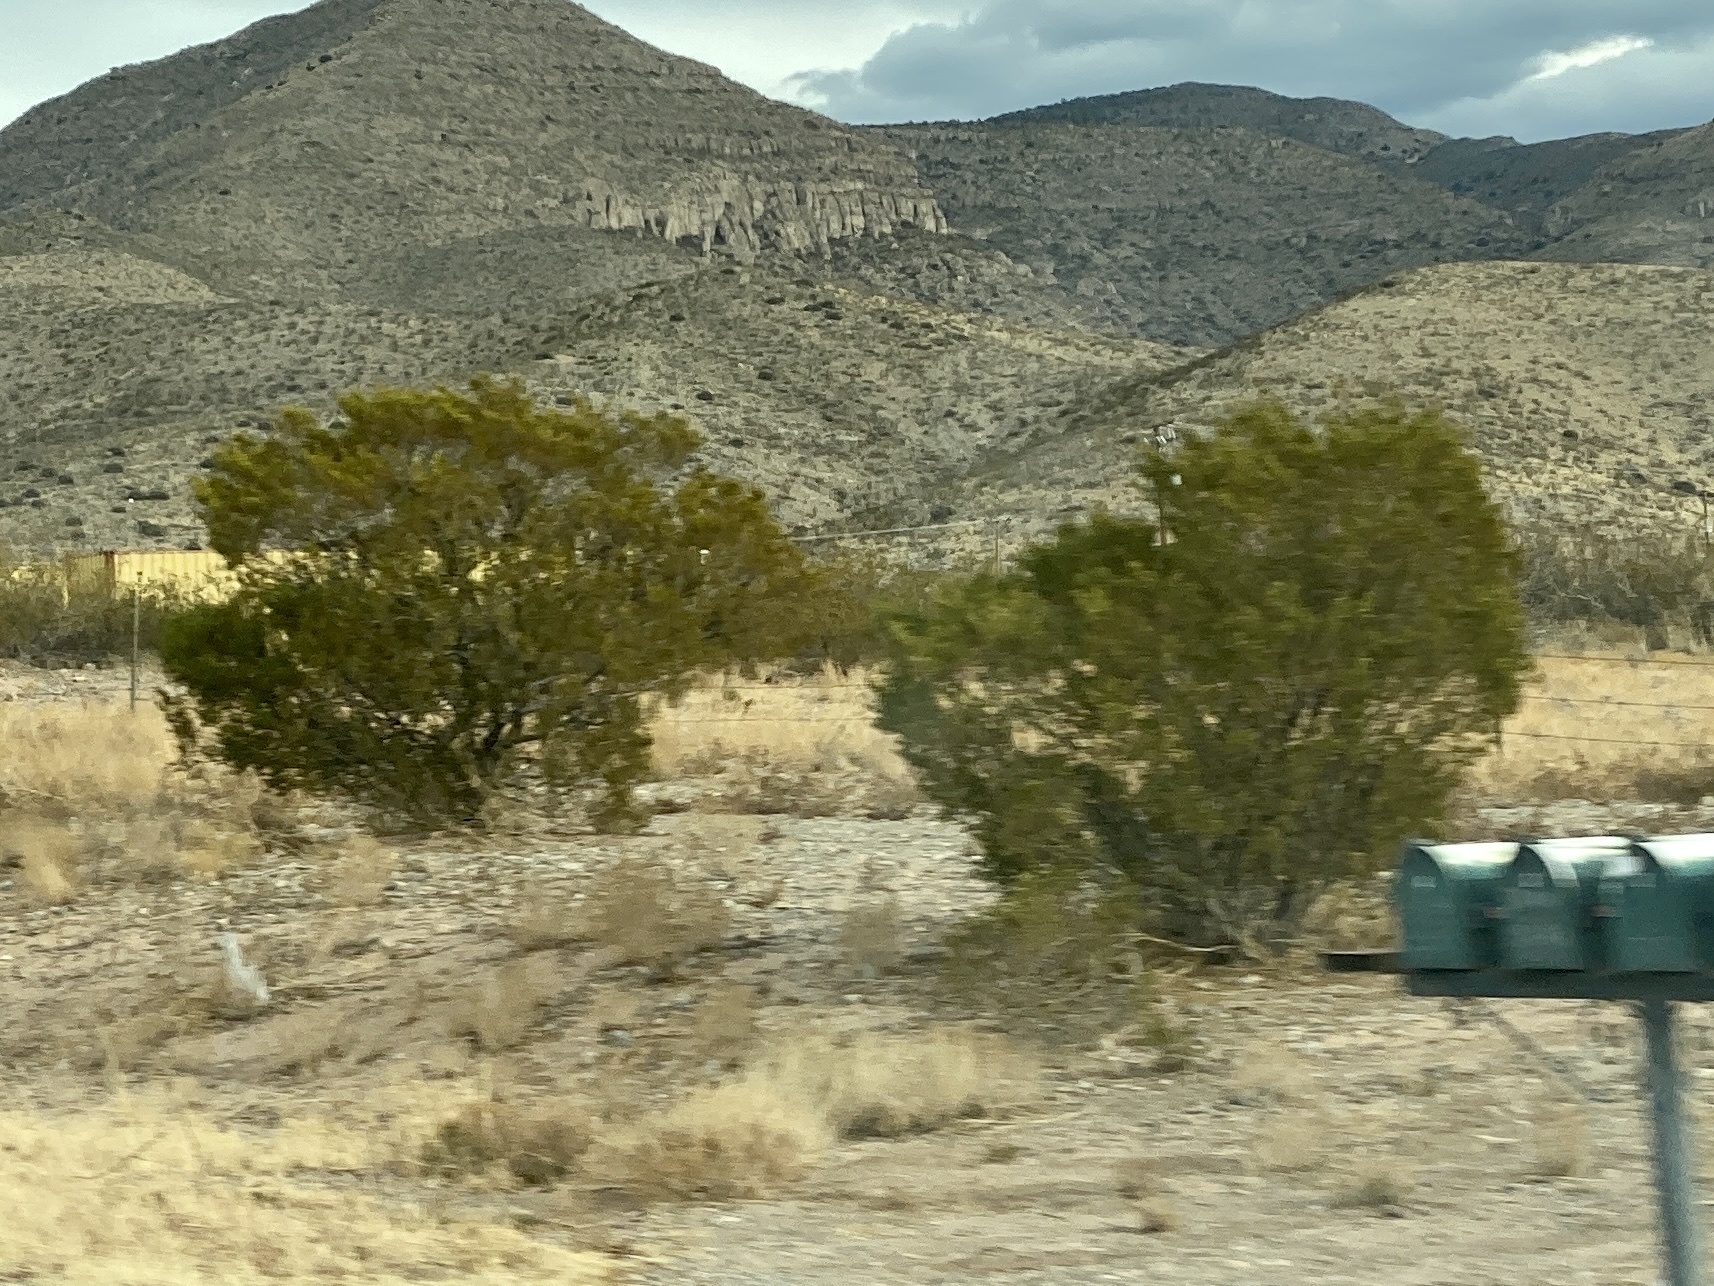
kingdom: Plantae
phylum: Tracheophyta
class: Magnoliopsida
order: Zygophyllales
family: Zygophyllaceae
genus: Larrea
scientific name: Larrea tridentata
